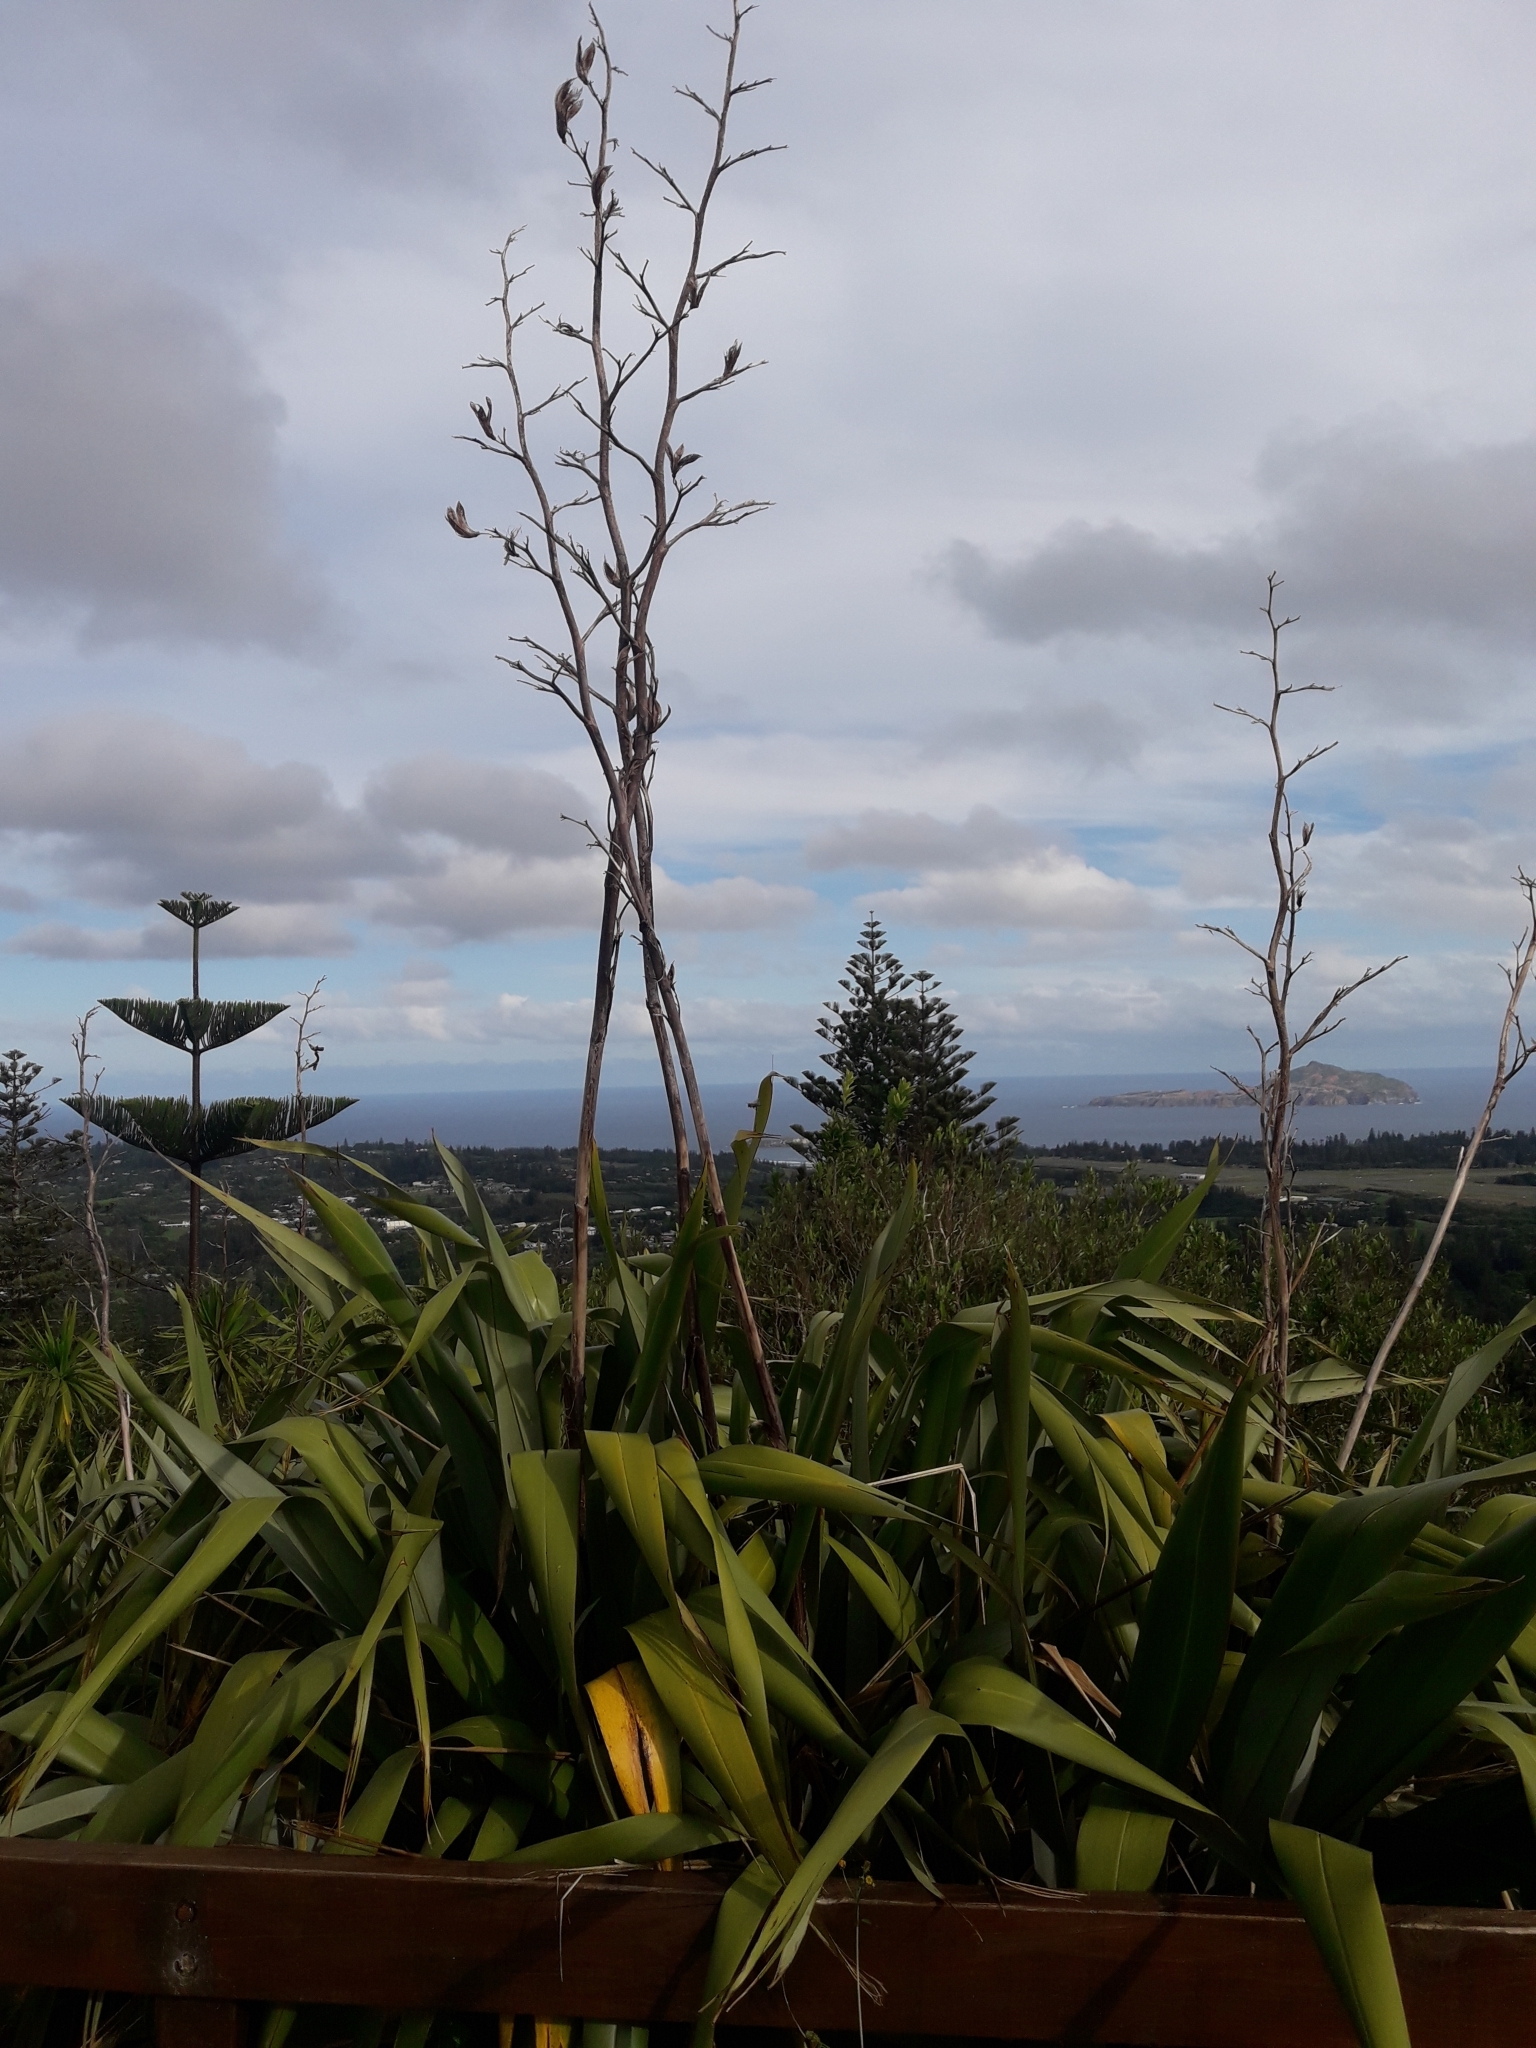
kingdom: Plantae
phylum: Tracheophyta
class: Liliopsida
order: Asparagales
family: Asphodelaceae
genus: Phormium
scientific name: Phormium tenax
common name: New zealand flax
